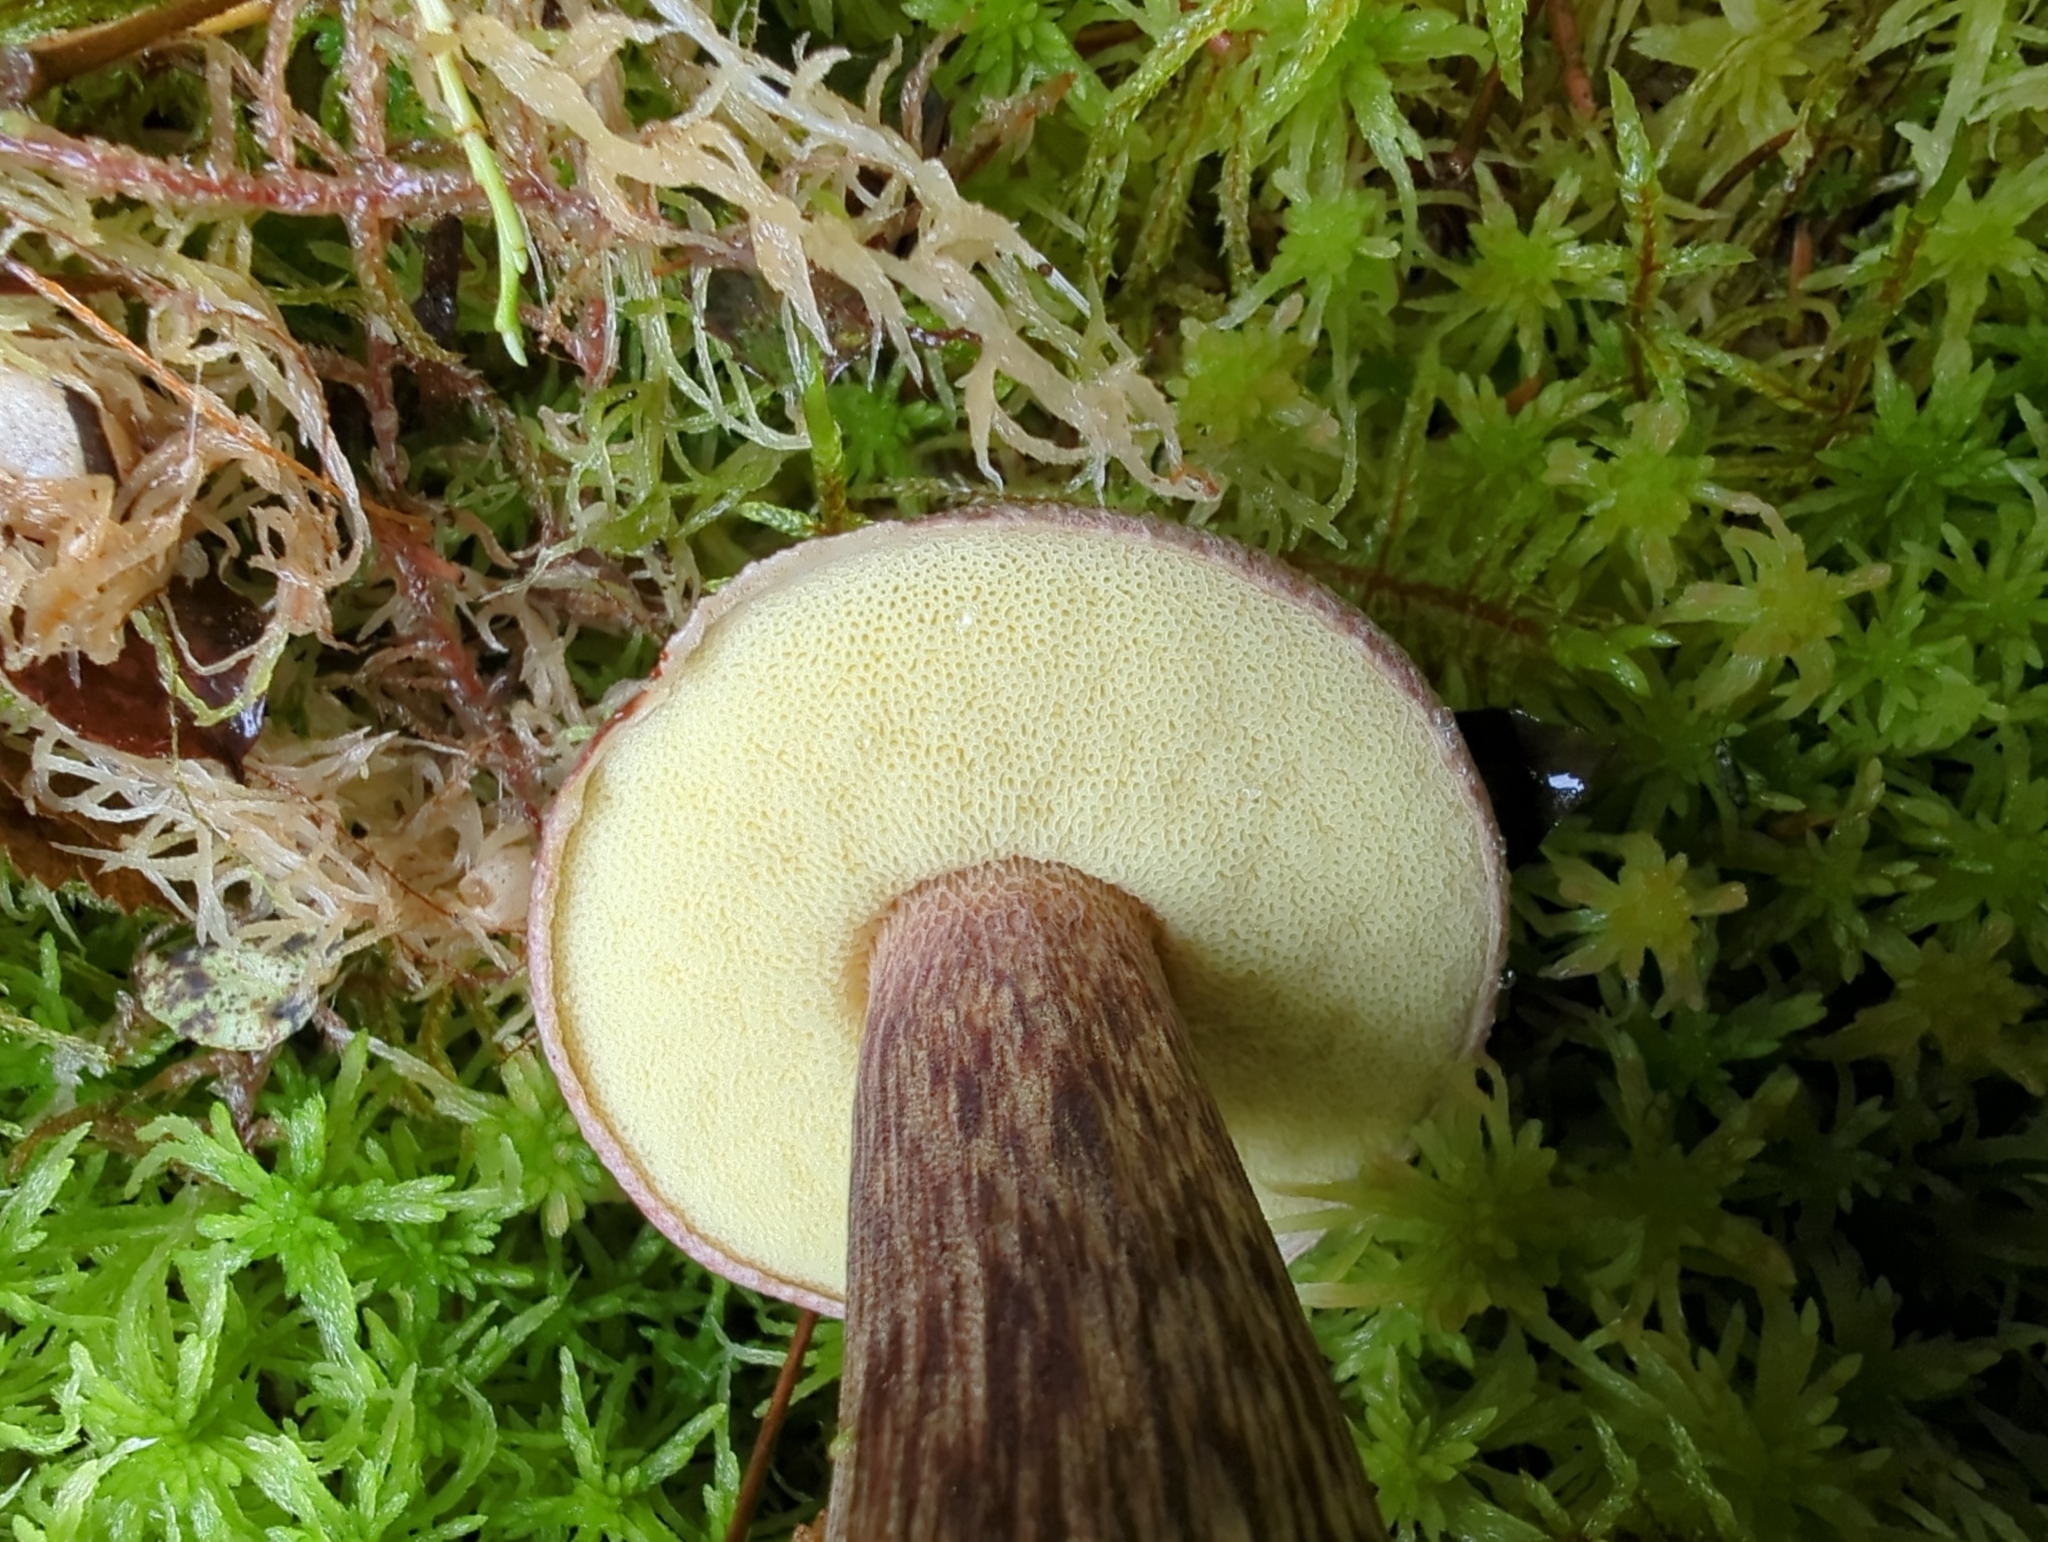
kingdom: Fungi
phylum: Basidiomycota
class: Agaricomycetes
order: Boletales
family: Boletaceae
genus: Aureoboletus
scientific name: Aureoboletus mirabilis
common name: Admirable bolete
